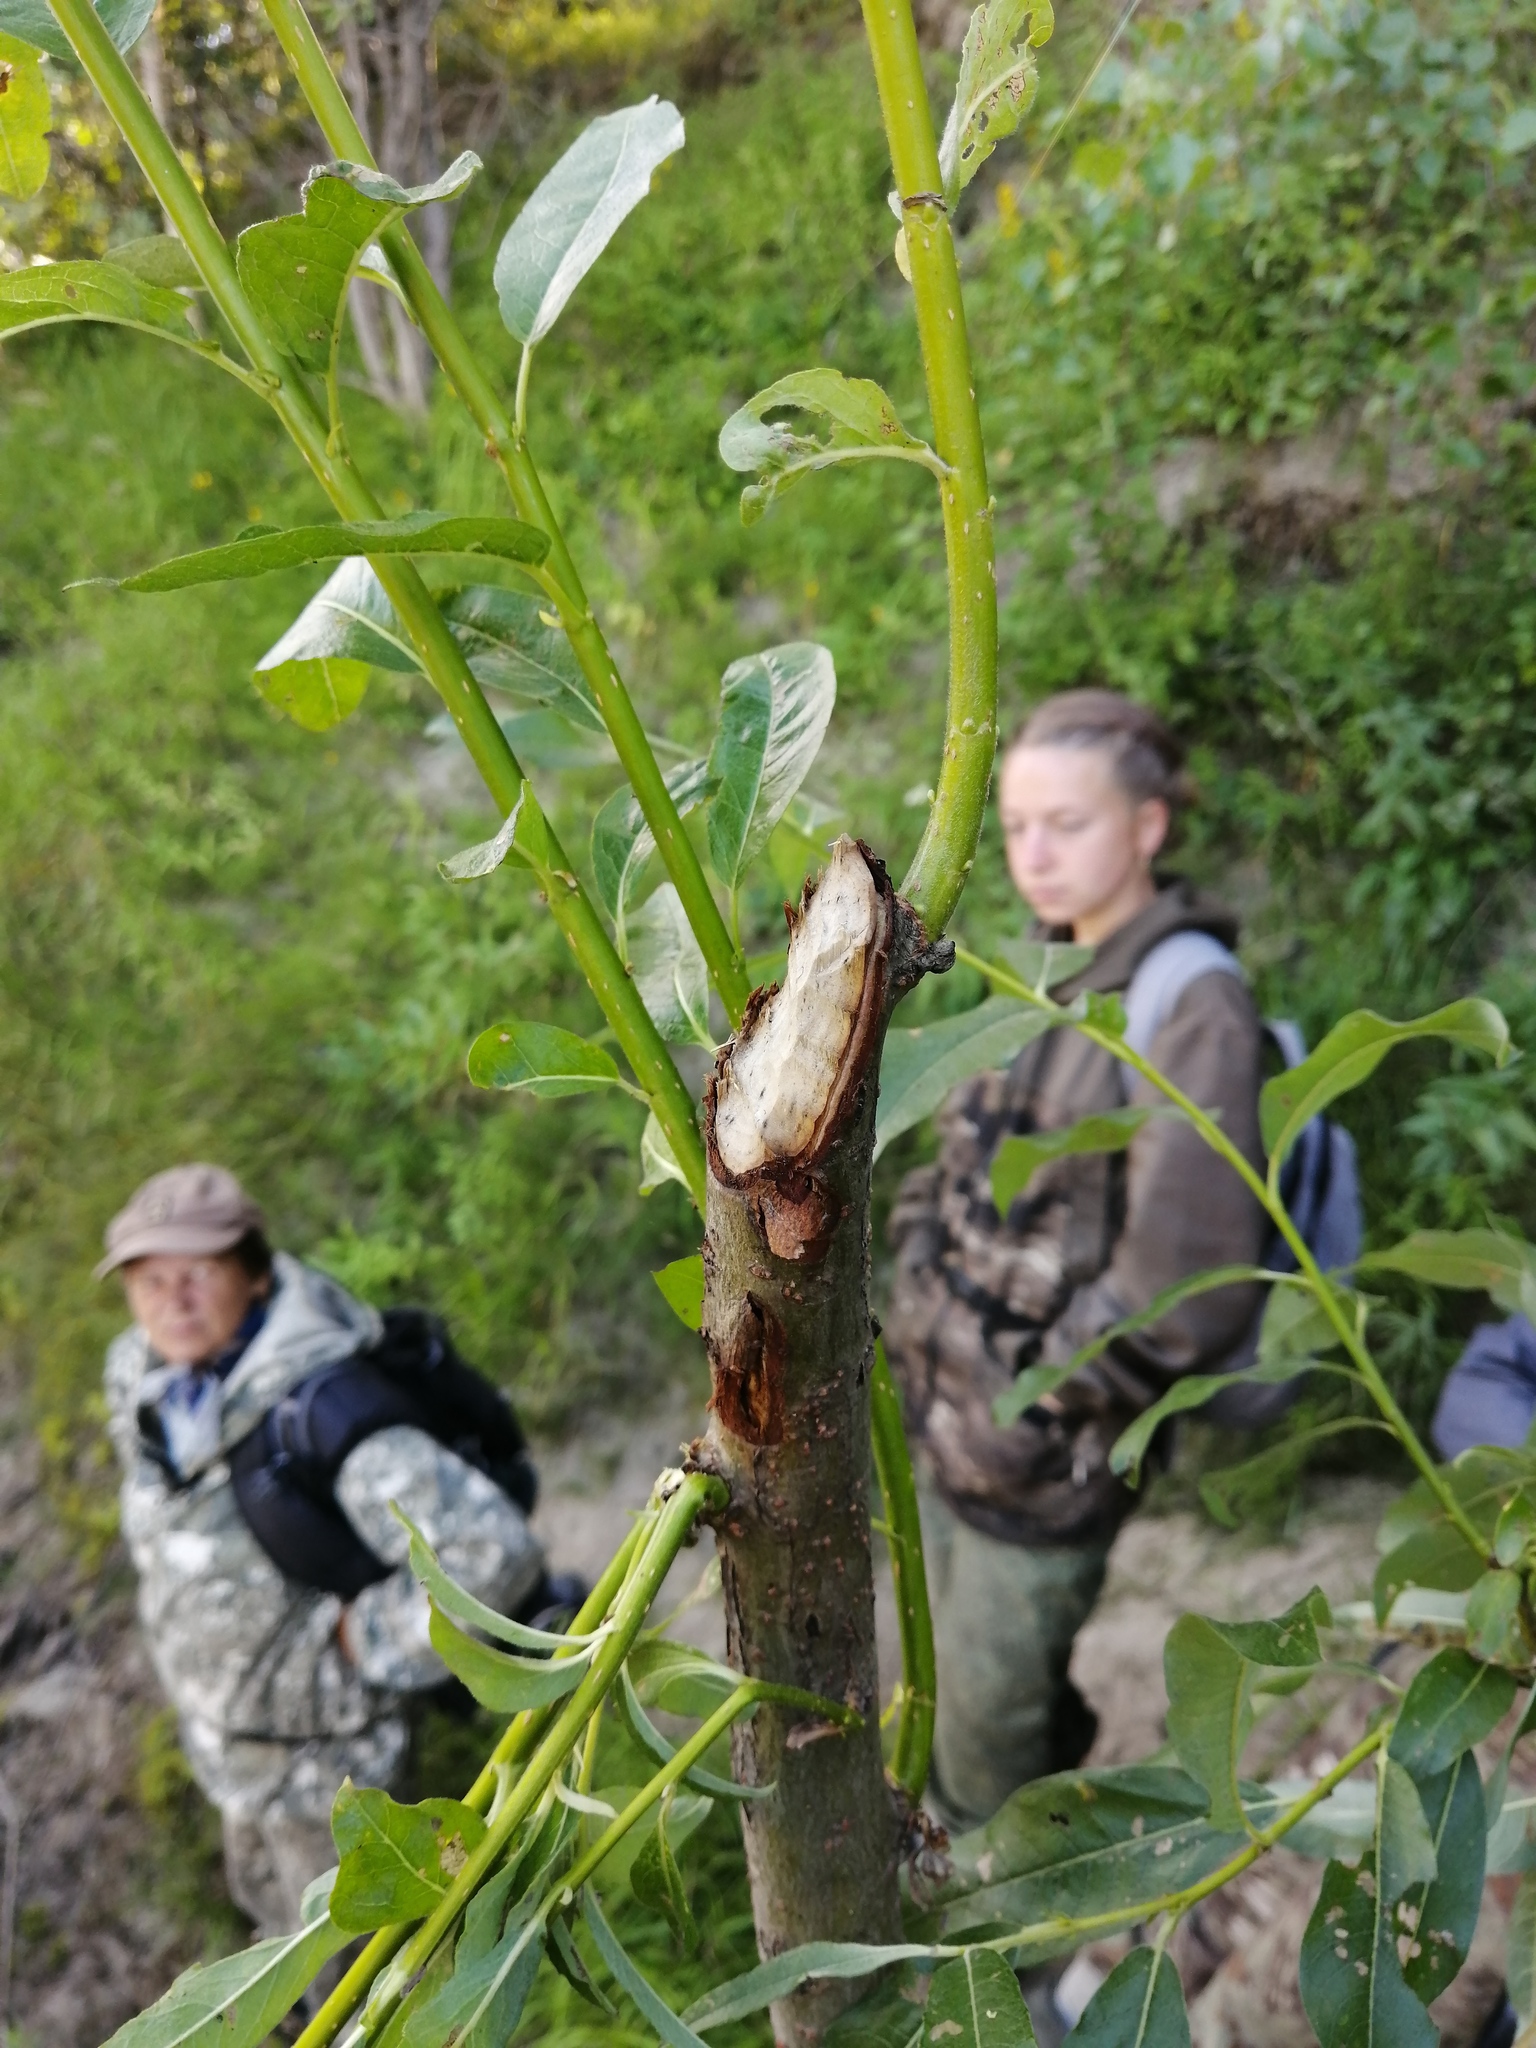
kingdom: Animalia
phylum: Chordata
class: Mammalia
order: Rodentia
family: Castoridae
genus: Castor
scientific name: Castor fiber
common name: Eurasian beaver
